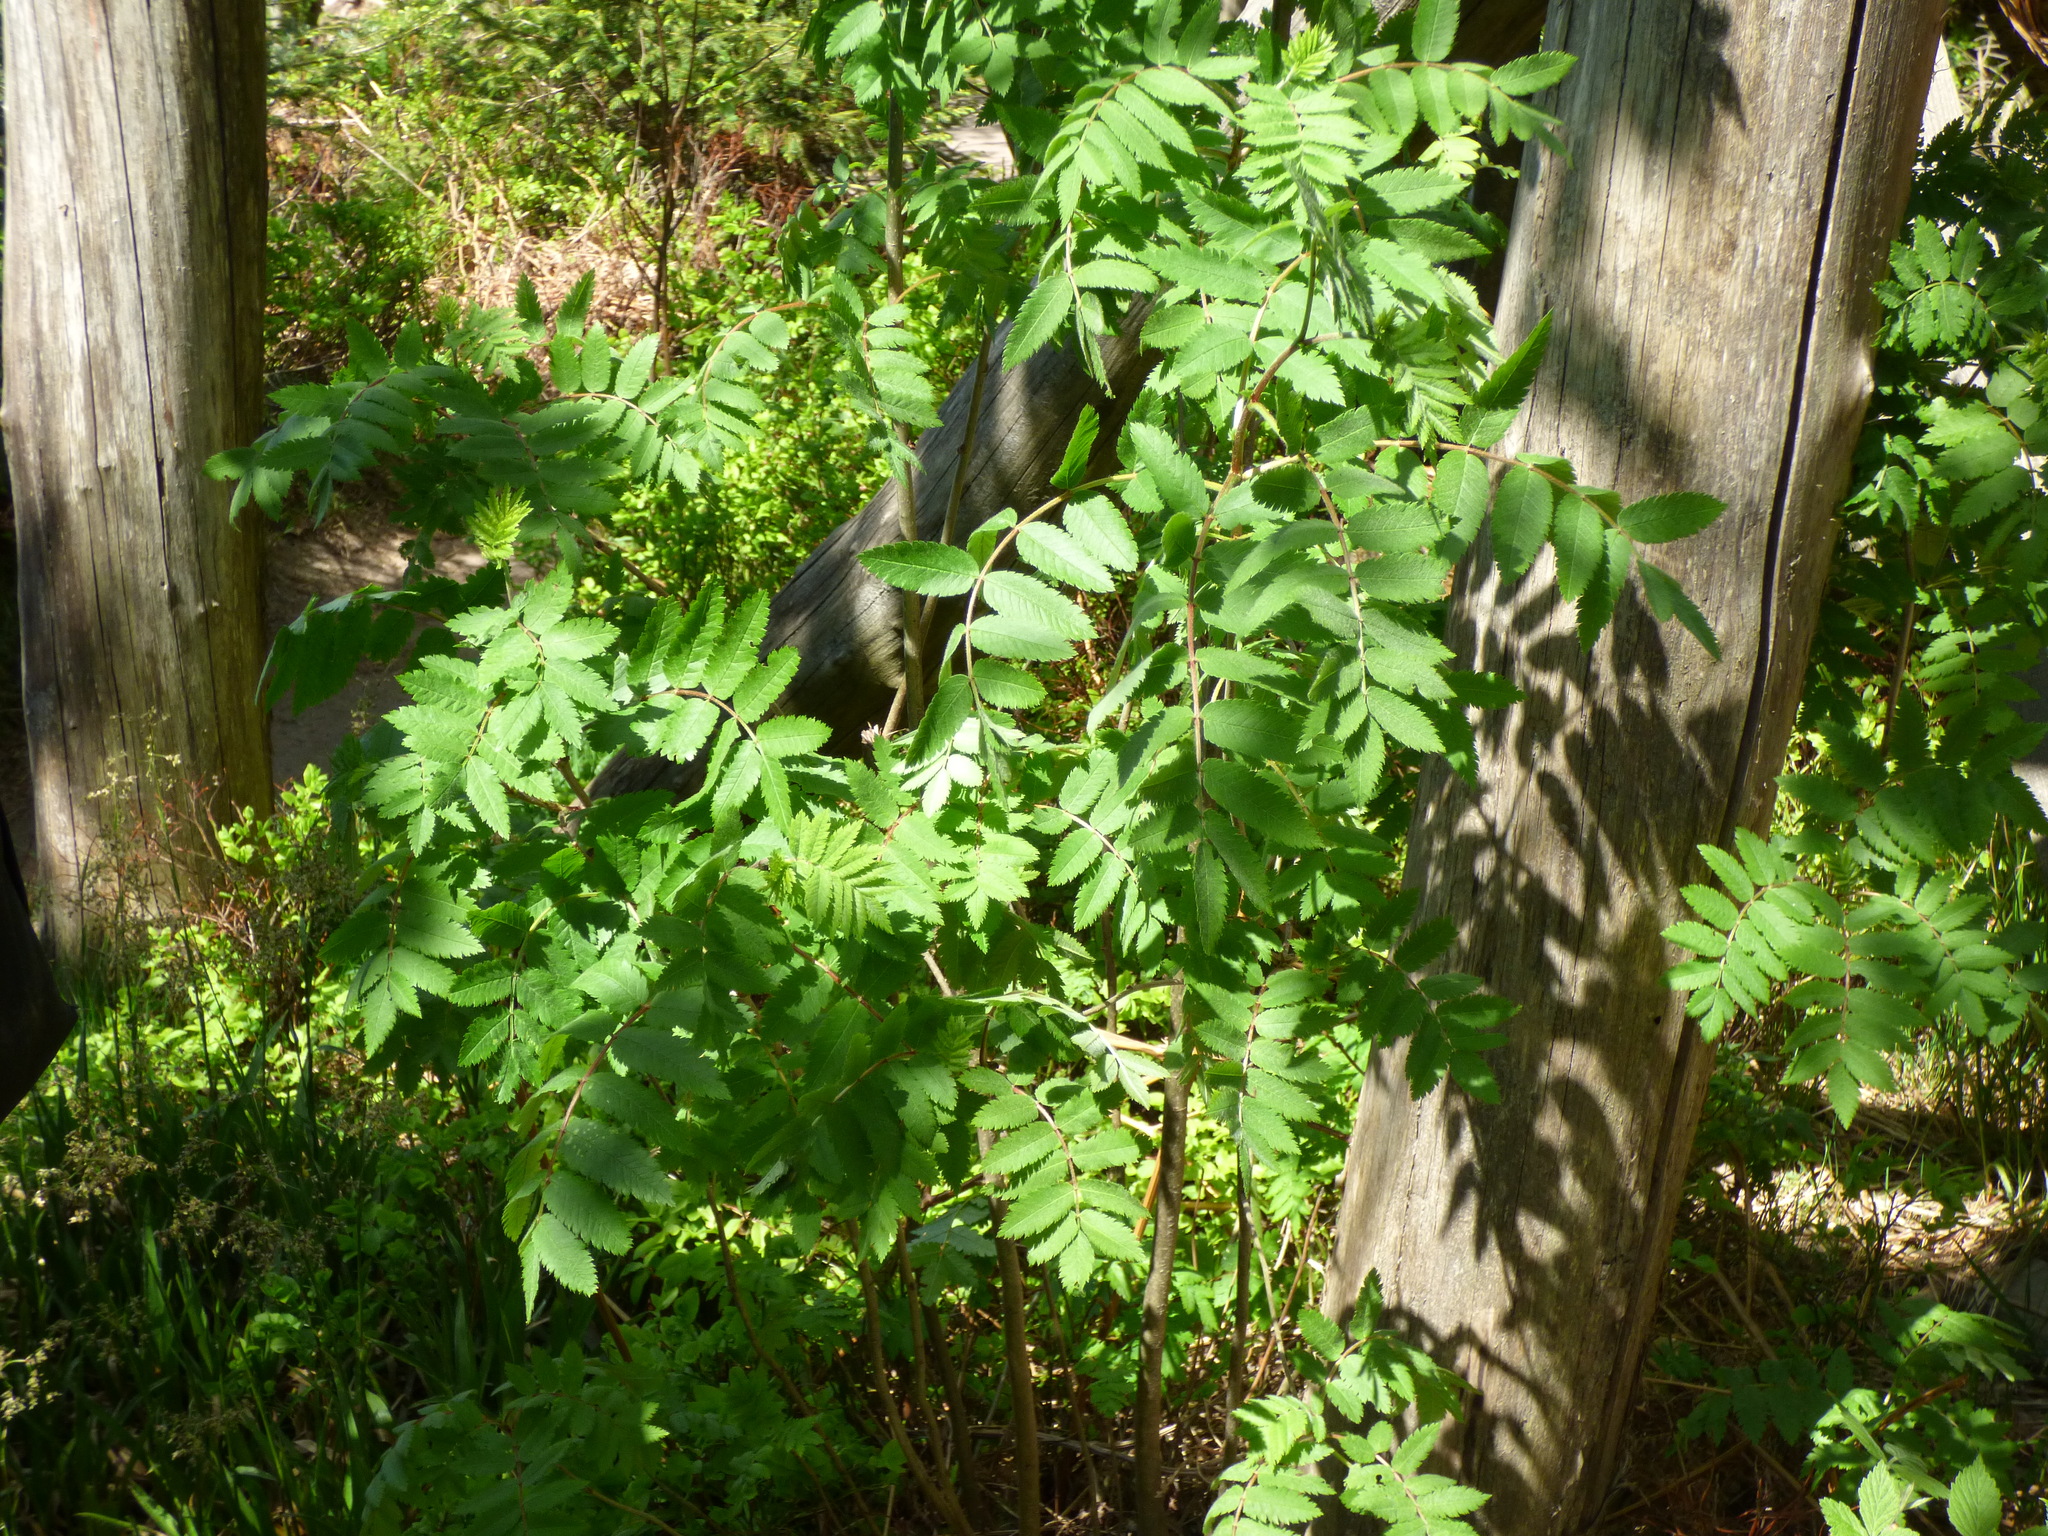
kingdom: Plantae
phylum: Tracheophyta
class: Magnoliopsida
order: Rosales
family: Rosaceae
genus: Sorbus
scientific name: Sorbus aucuparia
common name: Rowan
